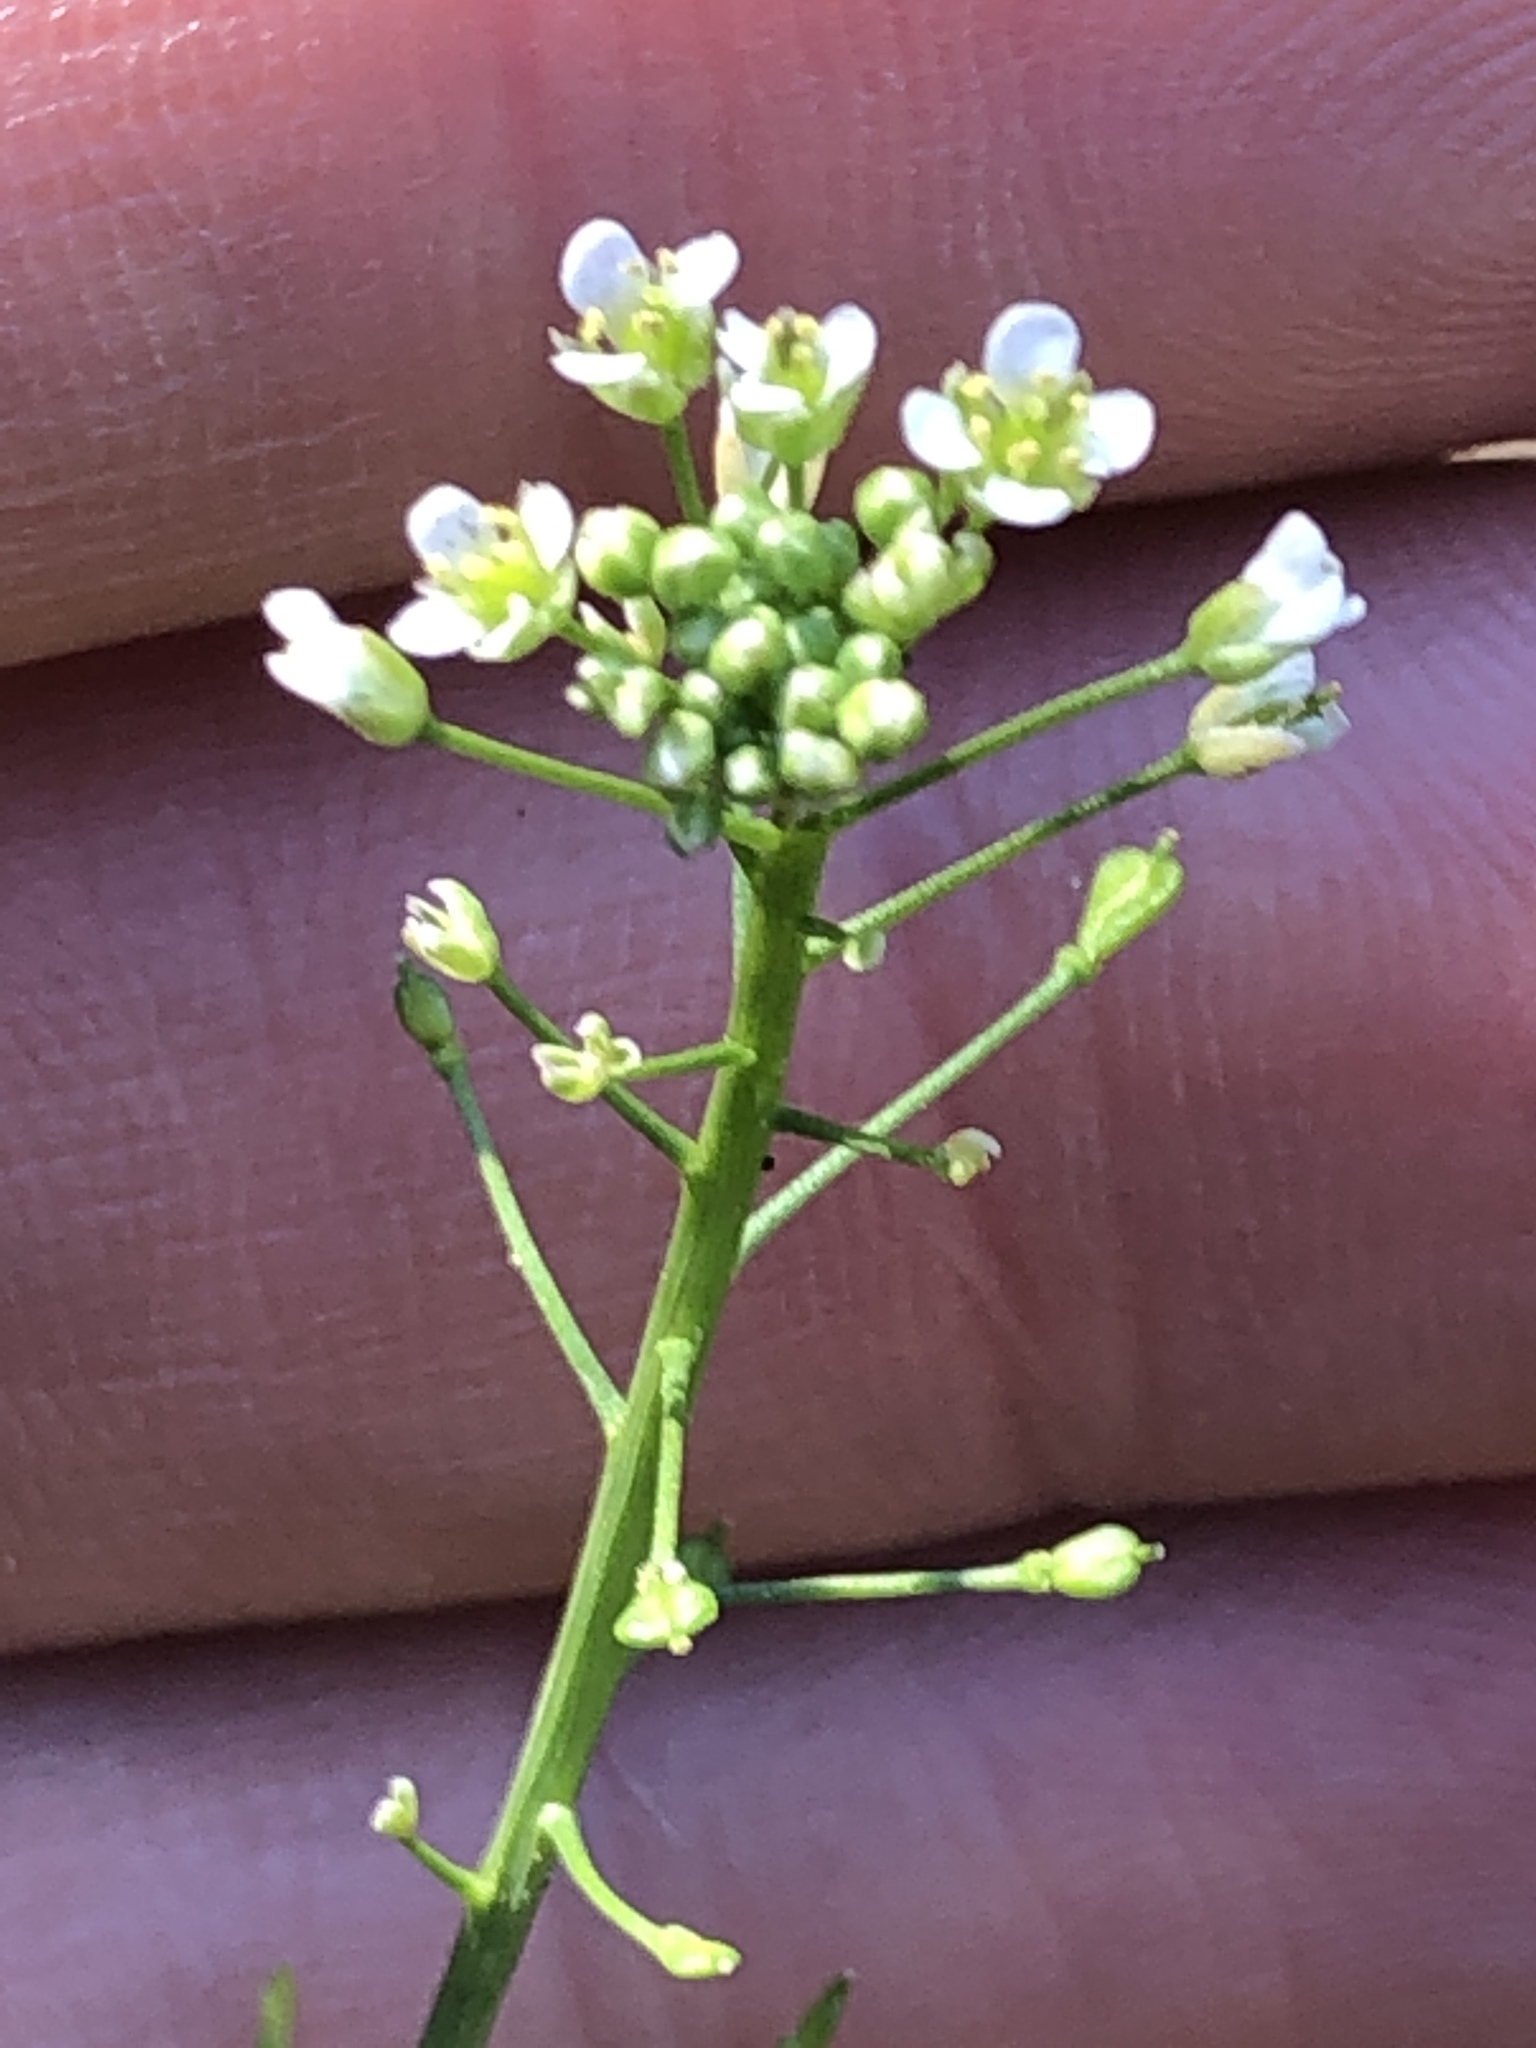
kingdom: Plantae
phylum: Tracheophyta
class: Magnoliopsida
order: Brassicales
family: Brassicaceae
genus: Capsella
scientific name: Capsella bursa-pastoris
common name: Shepherd's purse
